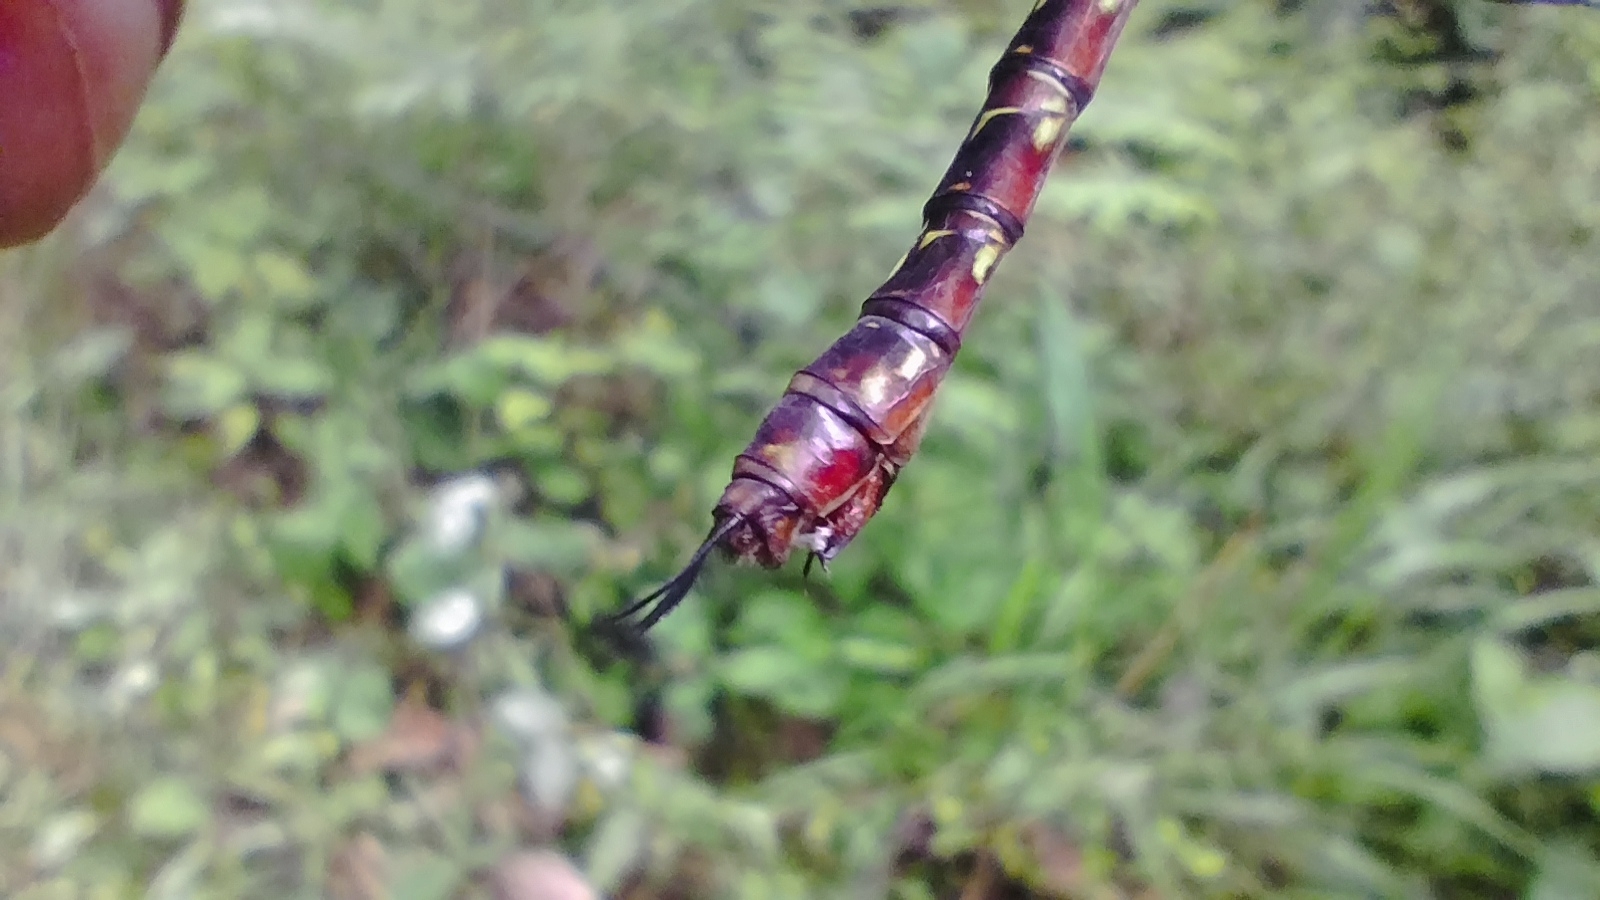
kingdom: Animalia
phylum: Arthropoda
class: Insecta
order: Odonata
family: Aeshnidae
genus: Oplonaeschna
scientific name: Oplonaeschna armata
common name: Riffle darner
